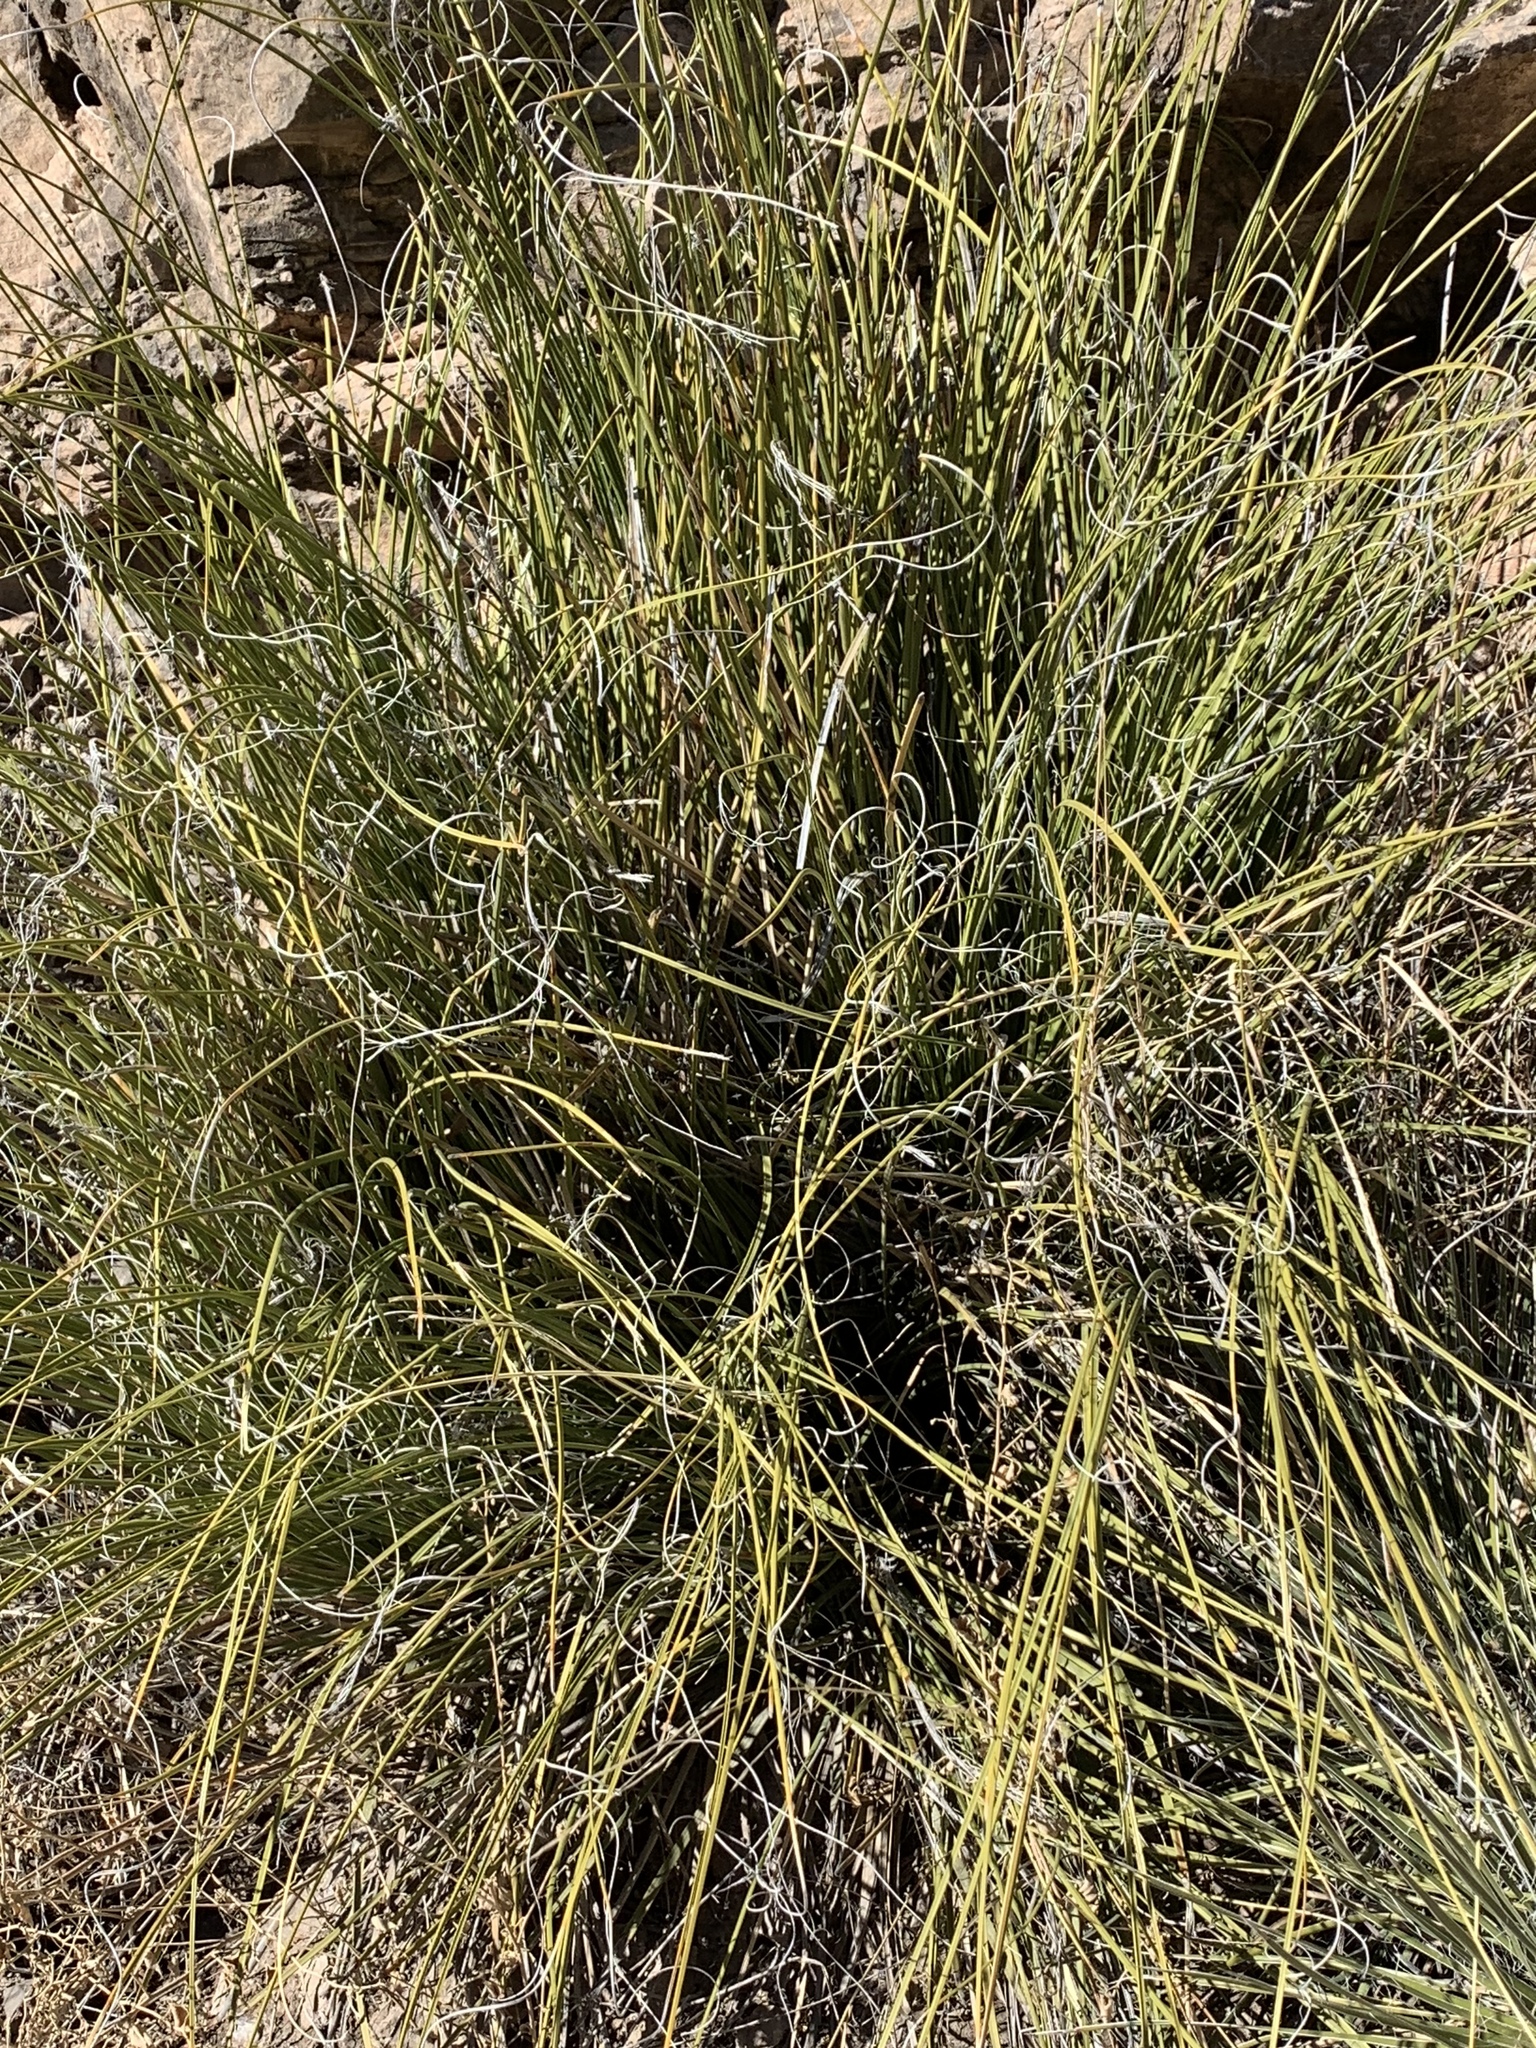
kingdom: Plantae
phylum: Tracheophyta
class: Liliopsida
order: Asparagales
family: Asparagaceae
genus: Nolina
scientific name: Nolina texana
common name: Texas sacahuiste
